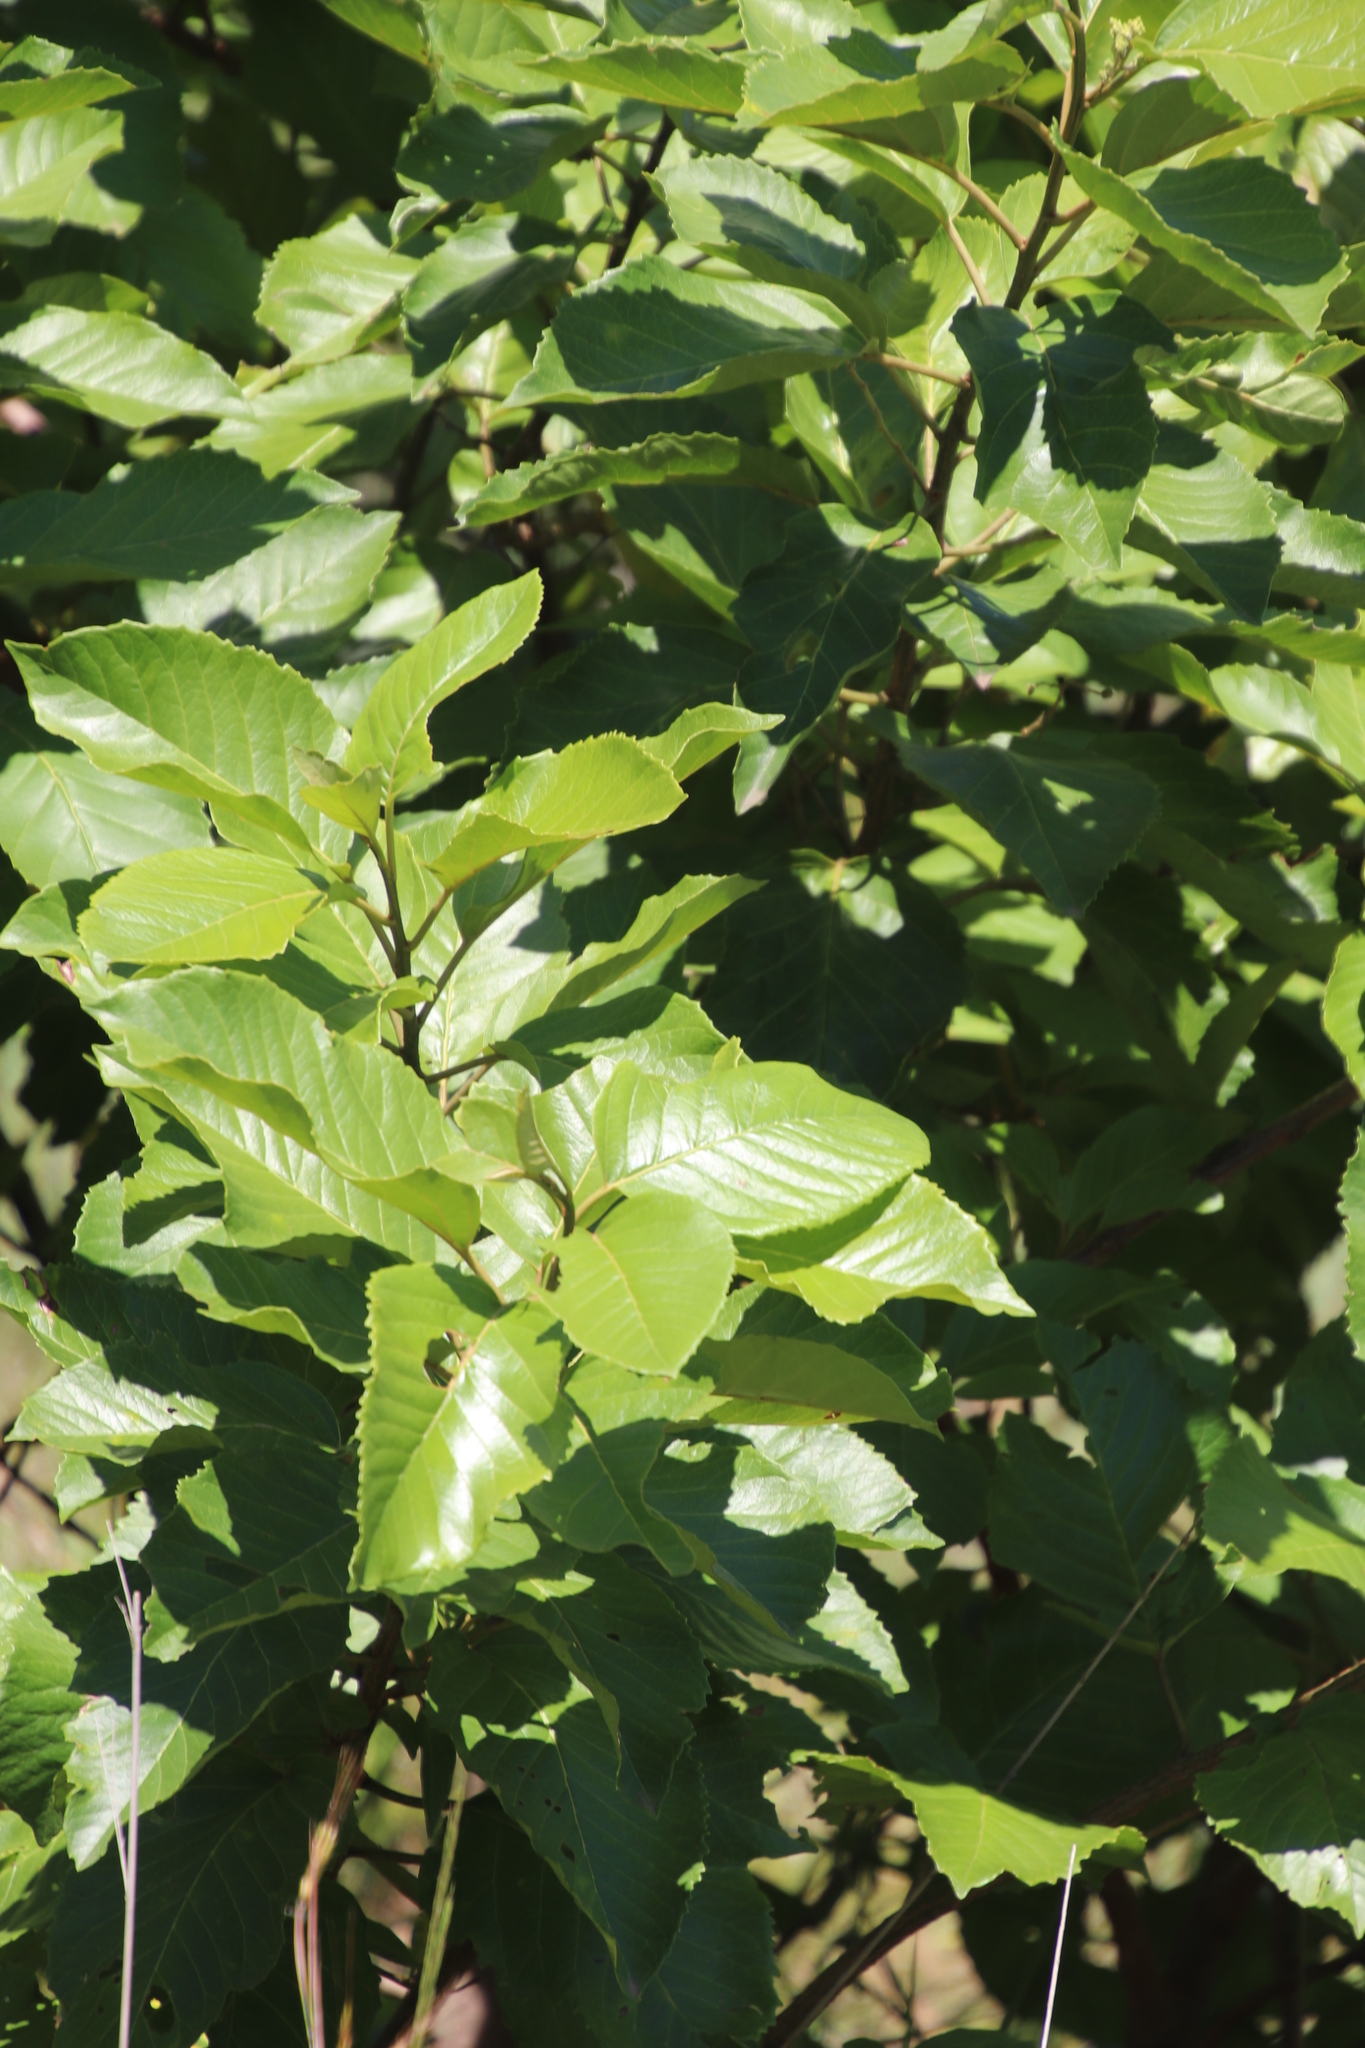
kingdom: Plantae
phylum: Tracheophyta
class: Magnoliopsida
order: Ericales
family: Primulaceae
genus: Maesa
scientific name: Maesa lanceolata
